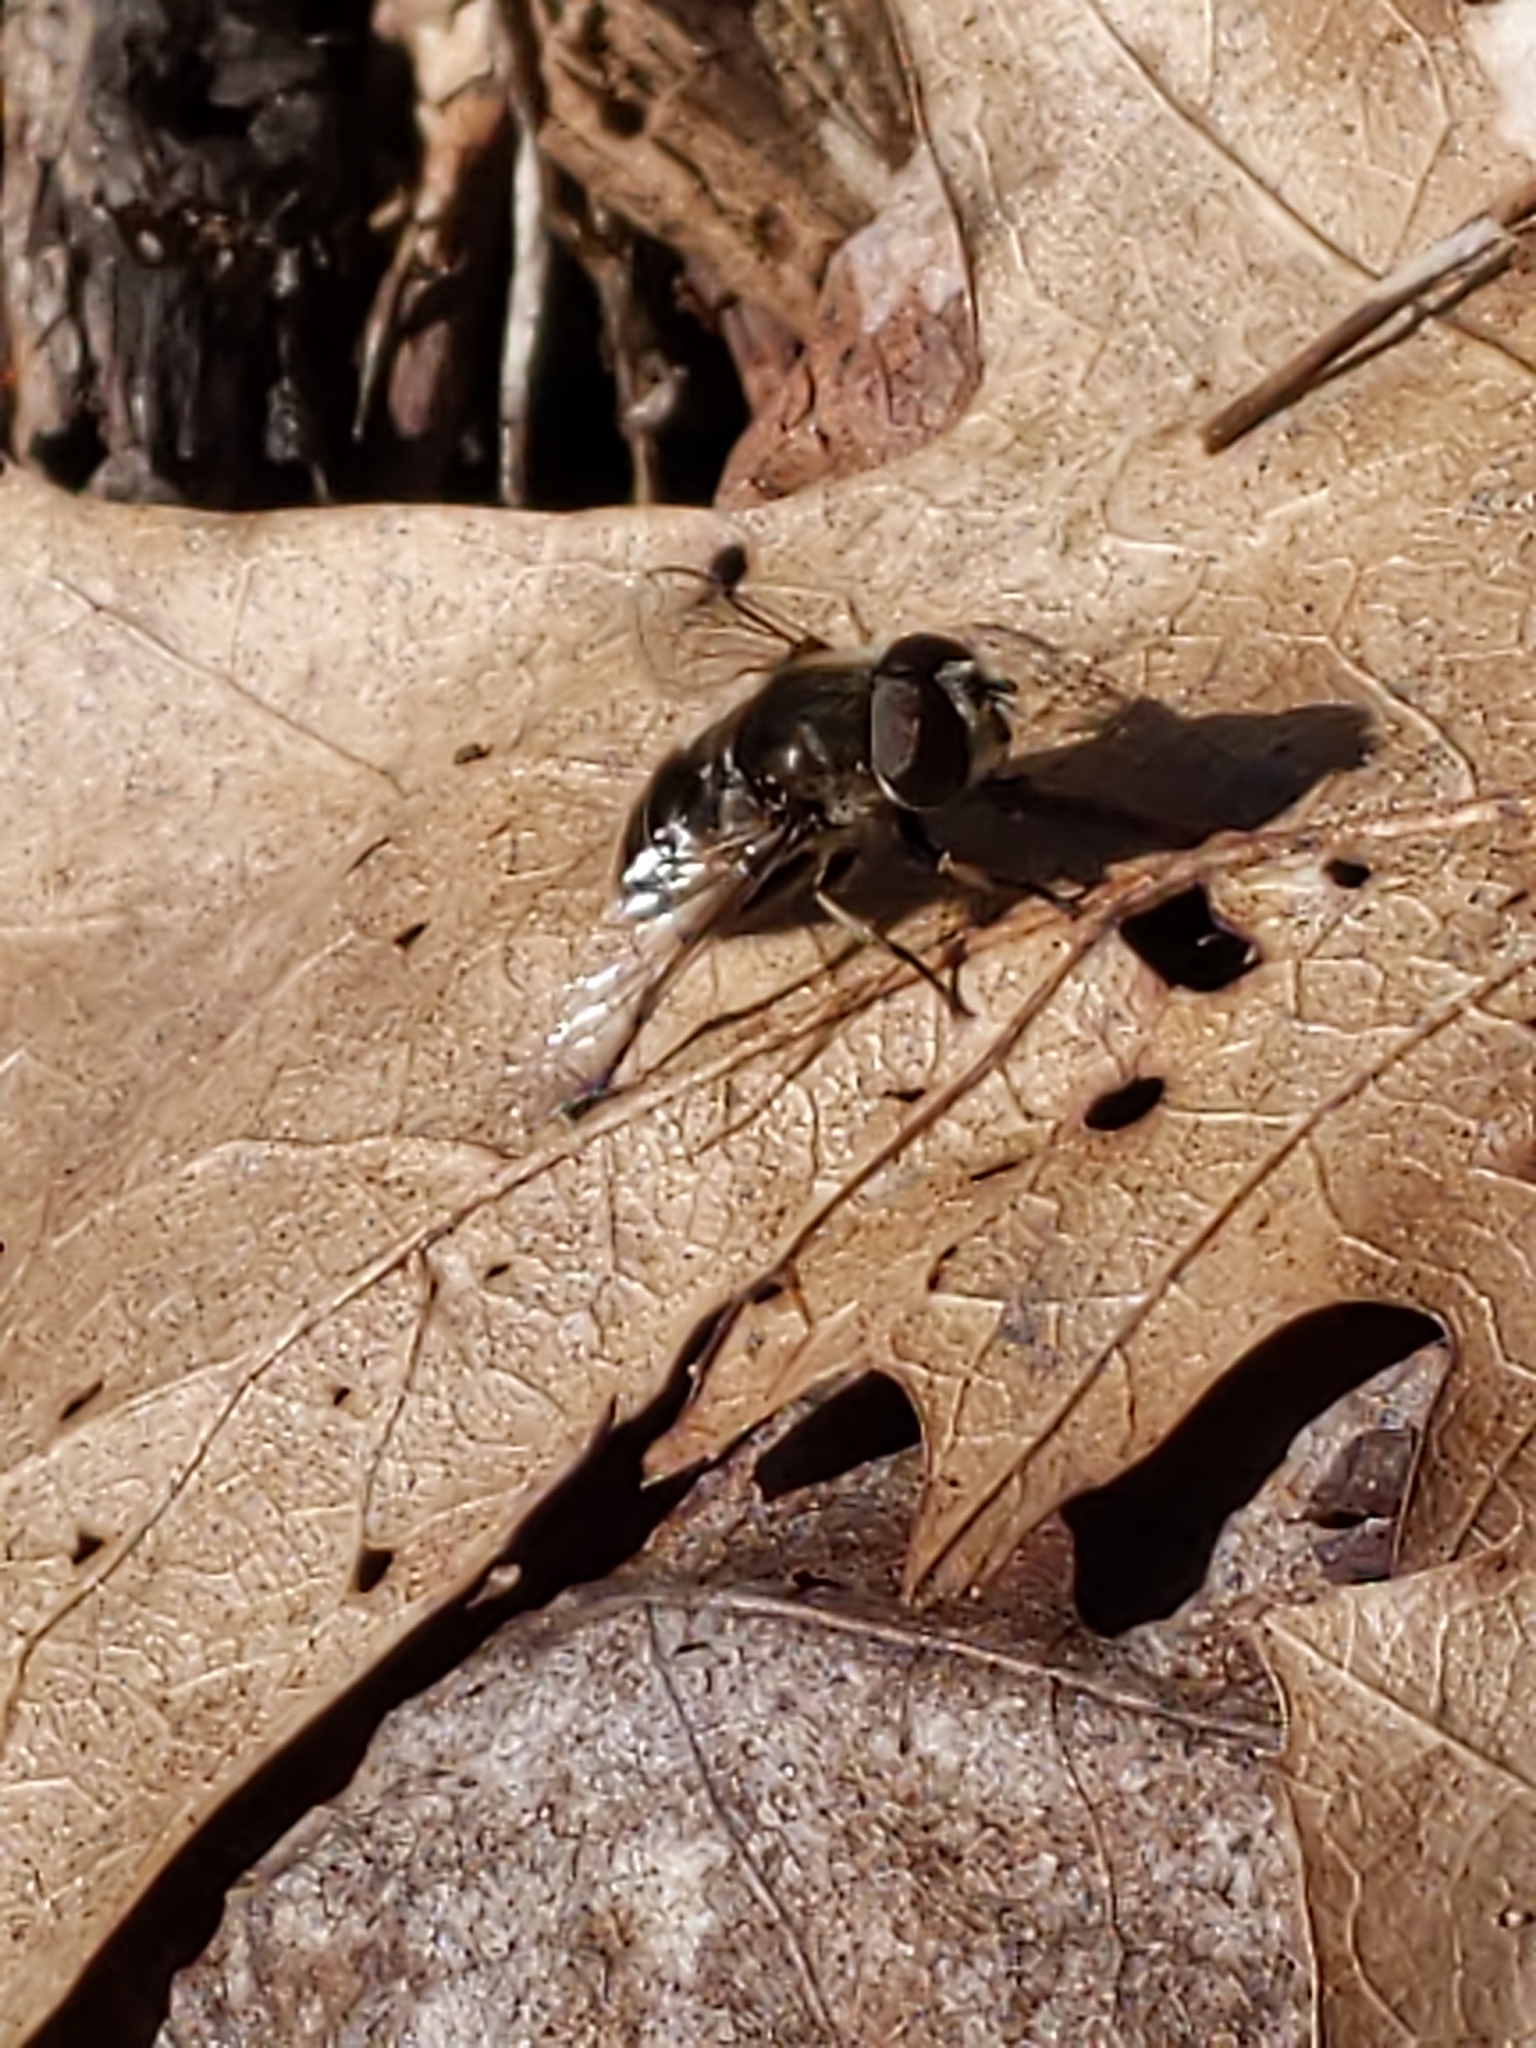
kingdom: Animalia
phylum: Arthropoda
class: Insecta
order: Diptera
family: Syrphidae
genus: Eristalis
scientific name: Eristalis dimidiata
